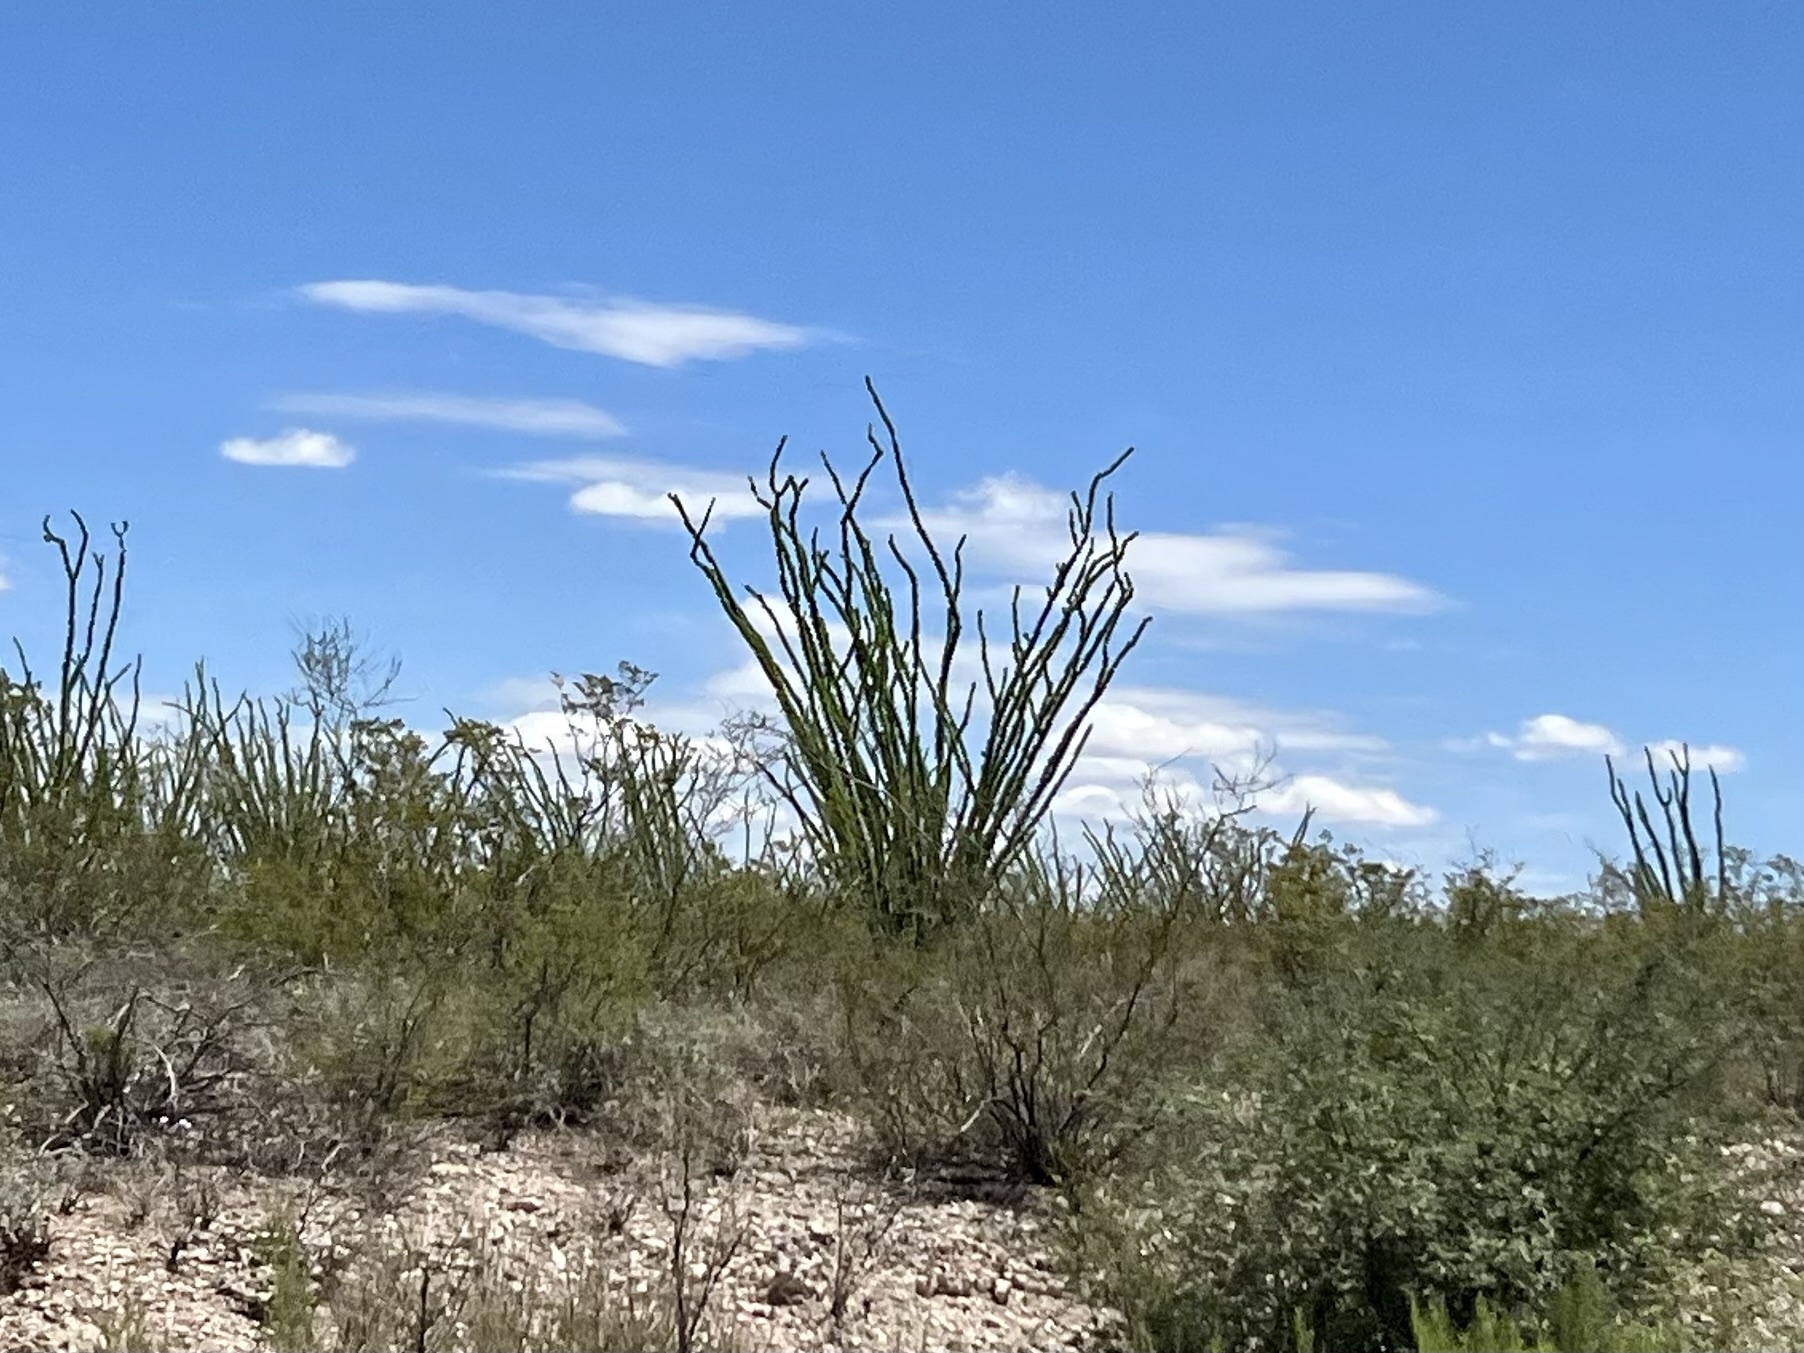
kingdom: Plantae
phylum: Tracheophyta
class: Magnoliopsida
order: Ericales
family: Fouquieriaceae
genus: Fouquieria
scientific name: Fouquieria splendens
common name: Vine-cactus
